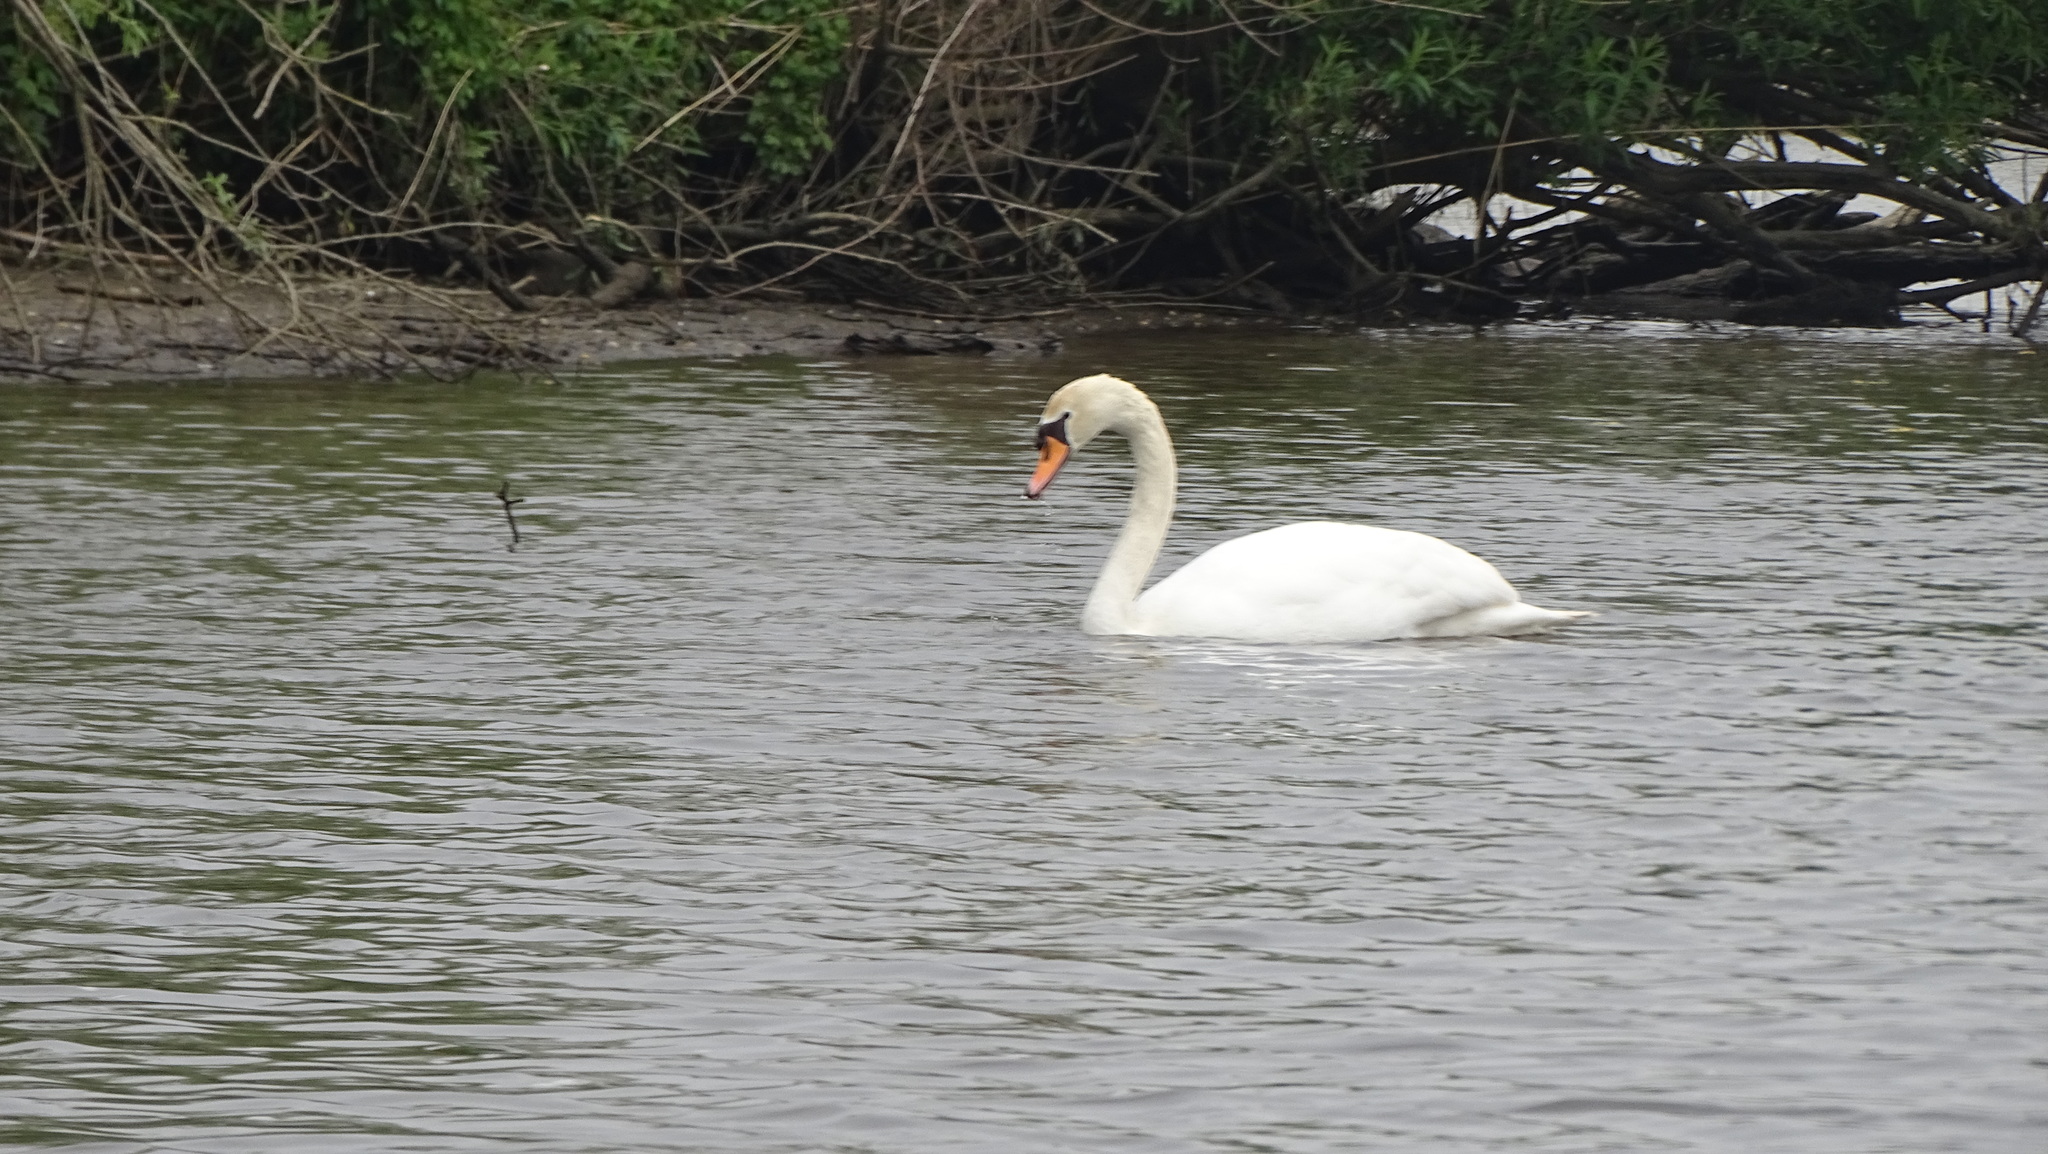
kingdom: Animalia
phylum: Chordata
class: Aves
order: Anseriformes
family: Anatidae
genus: Cygnus
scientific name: Cygnus olor
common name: Mute swan
